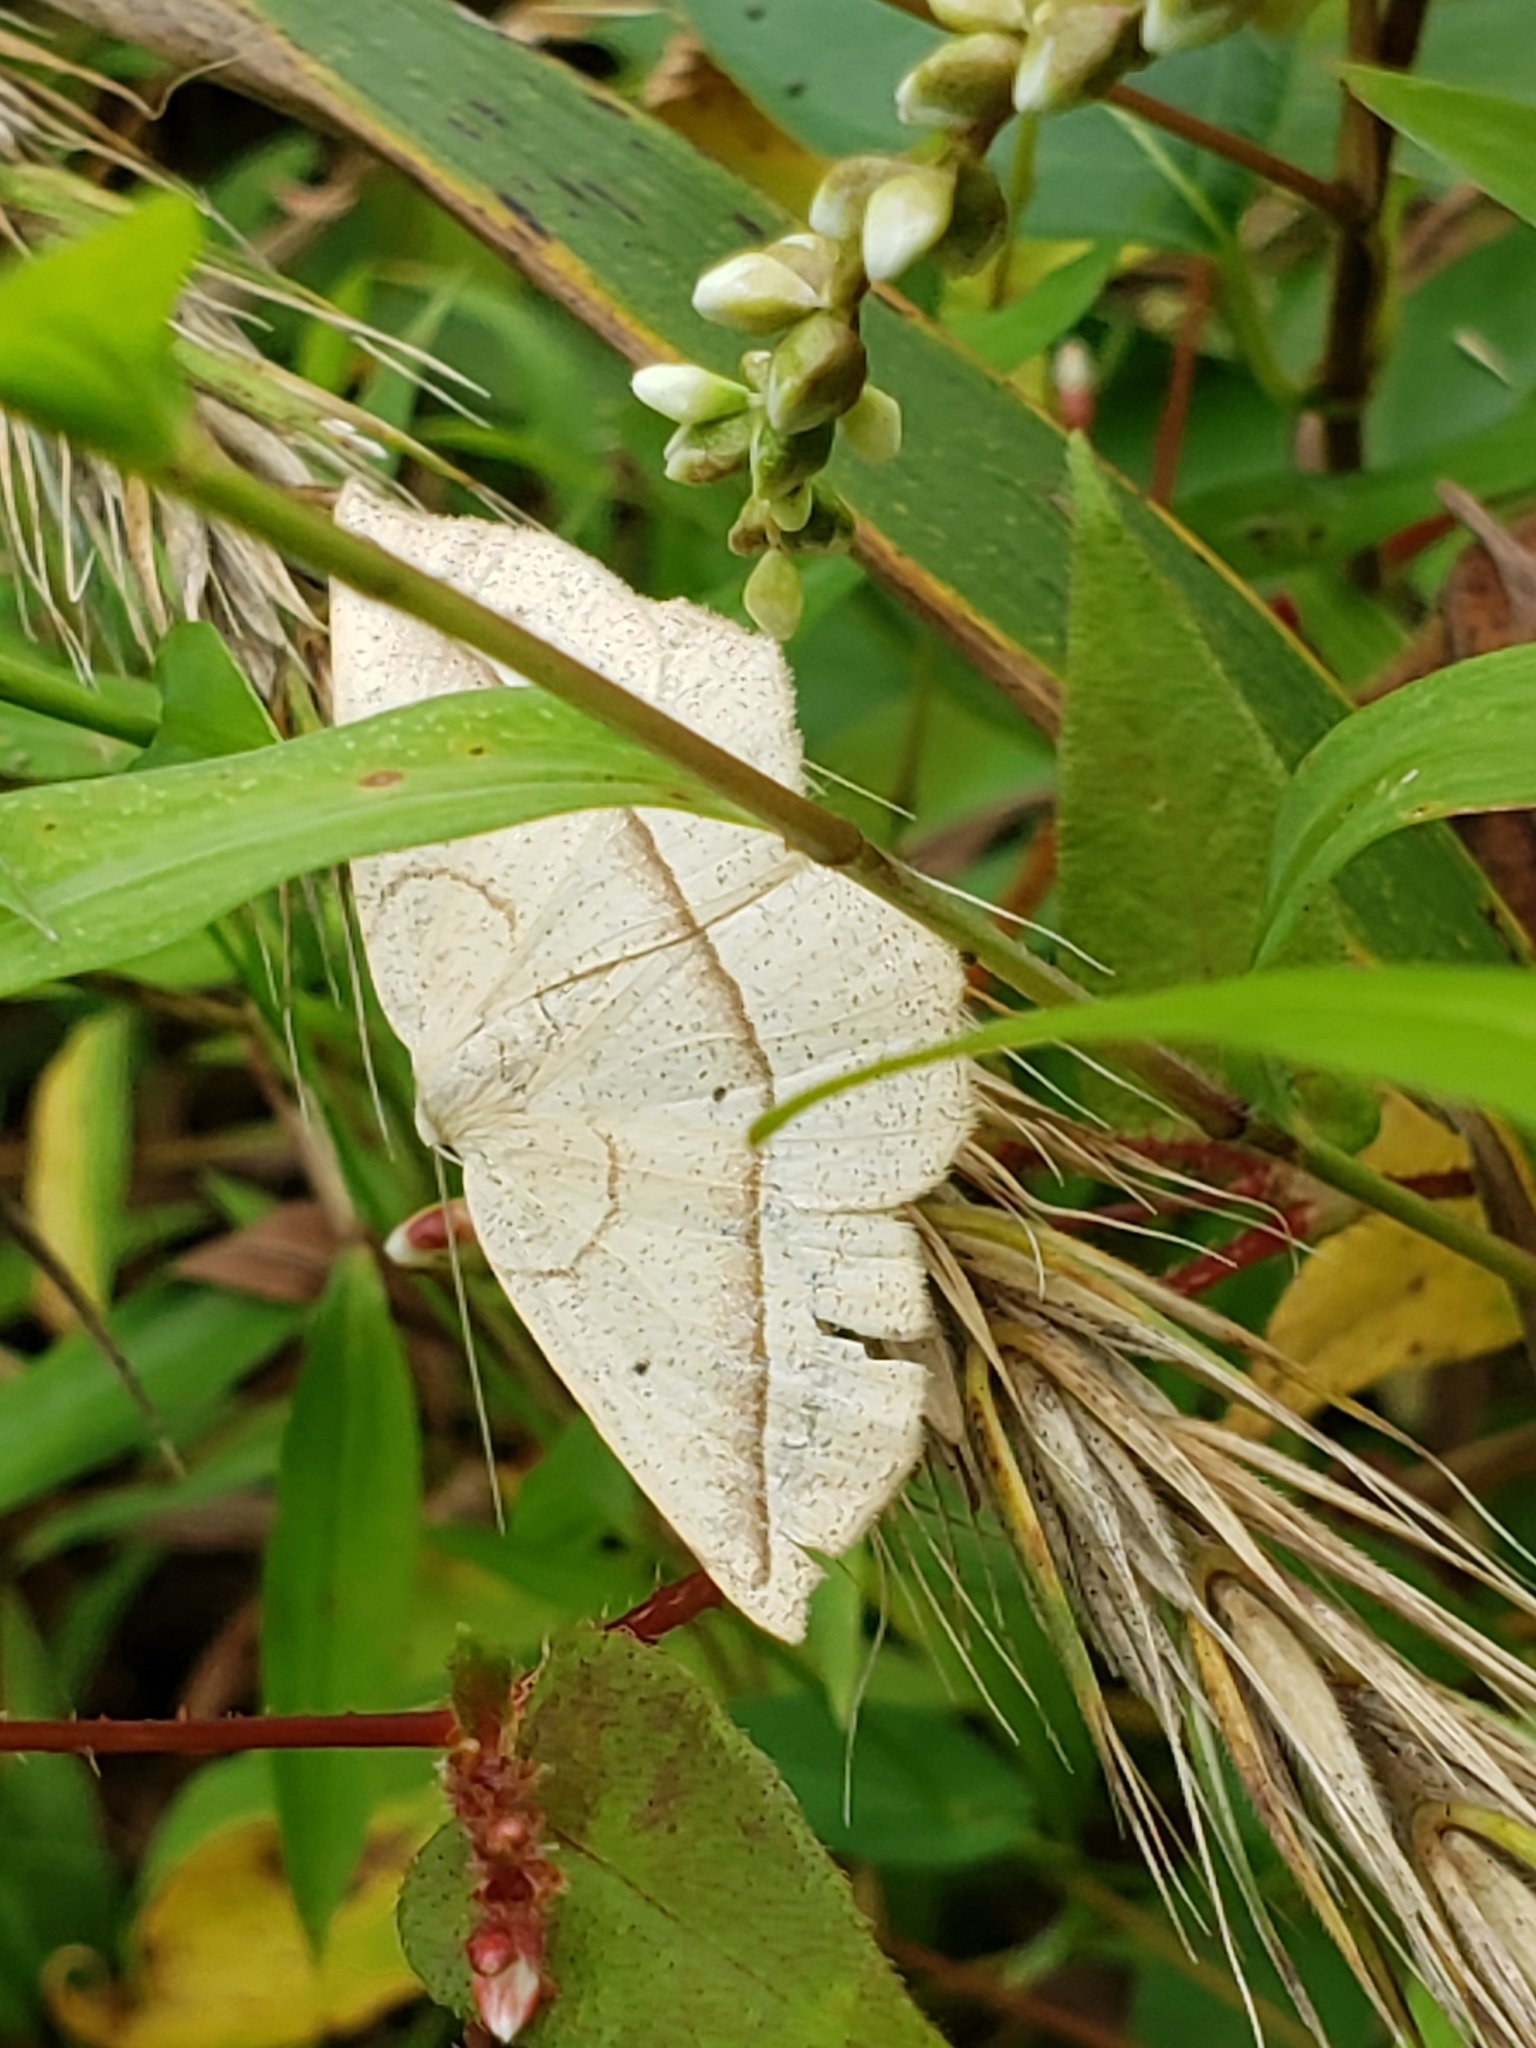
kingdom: Animalia
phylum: Arthropoda
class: Insecta
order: Lepidoptera
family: Geometridae
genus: Eusarca
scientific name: Eusarca confusaria
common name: Confused eusarca
